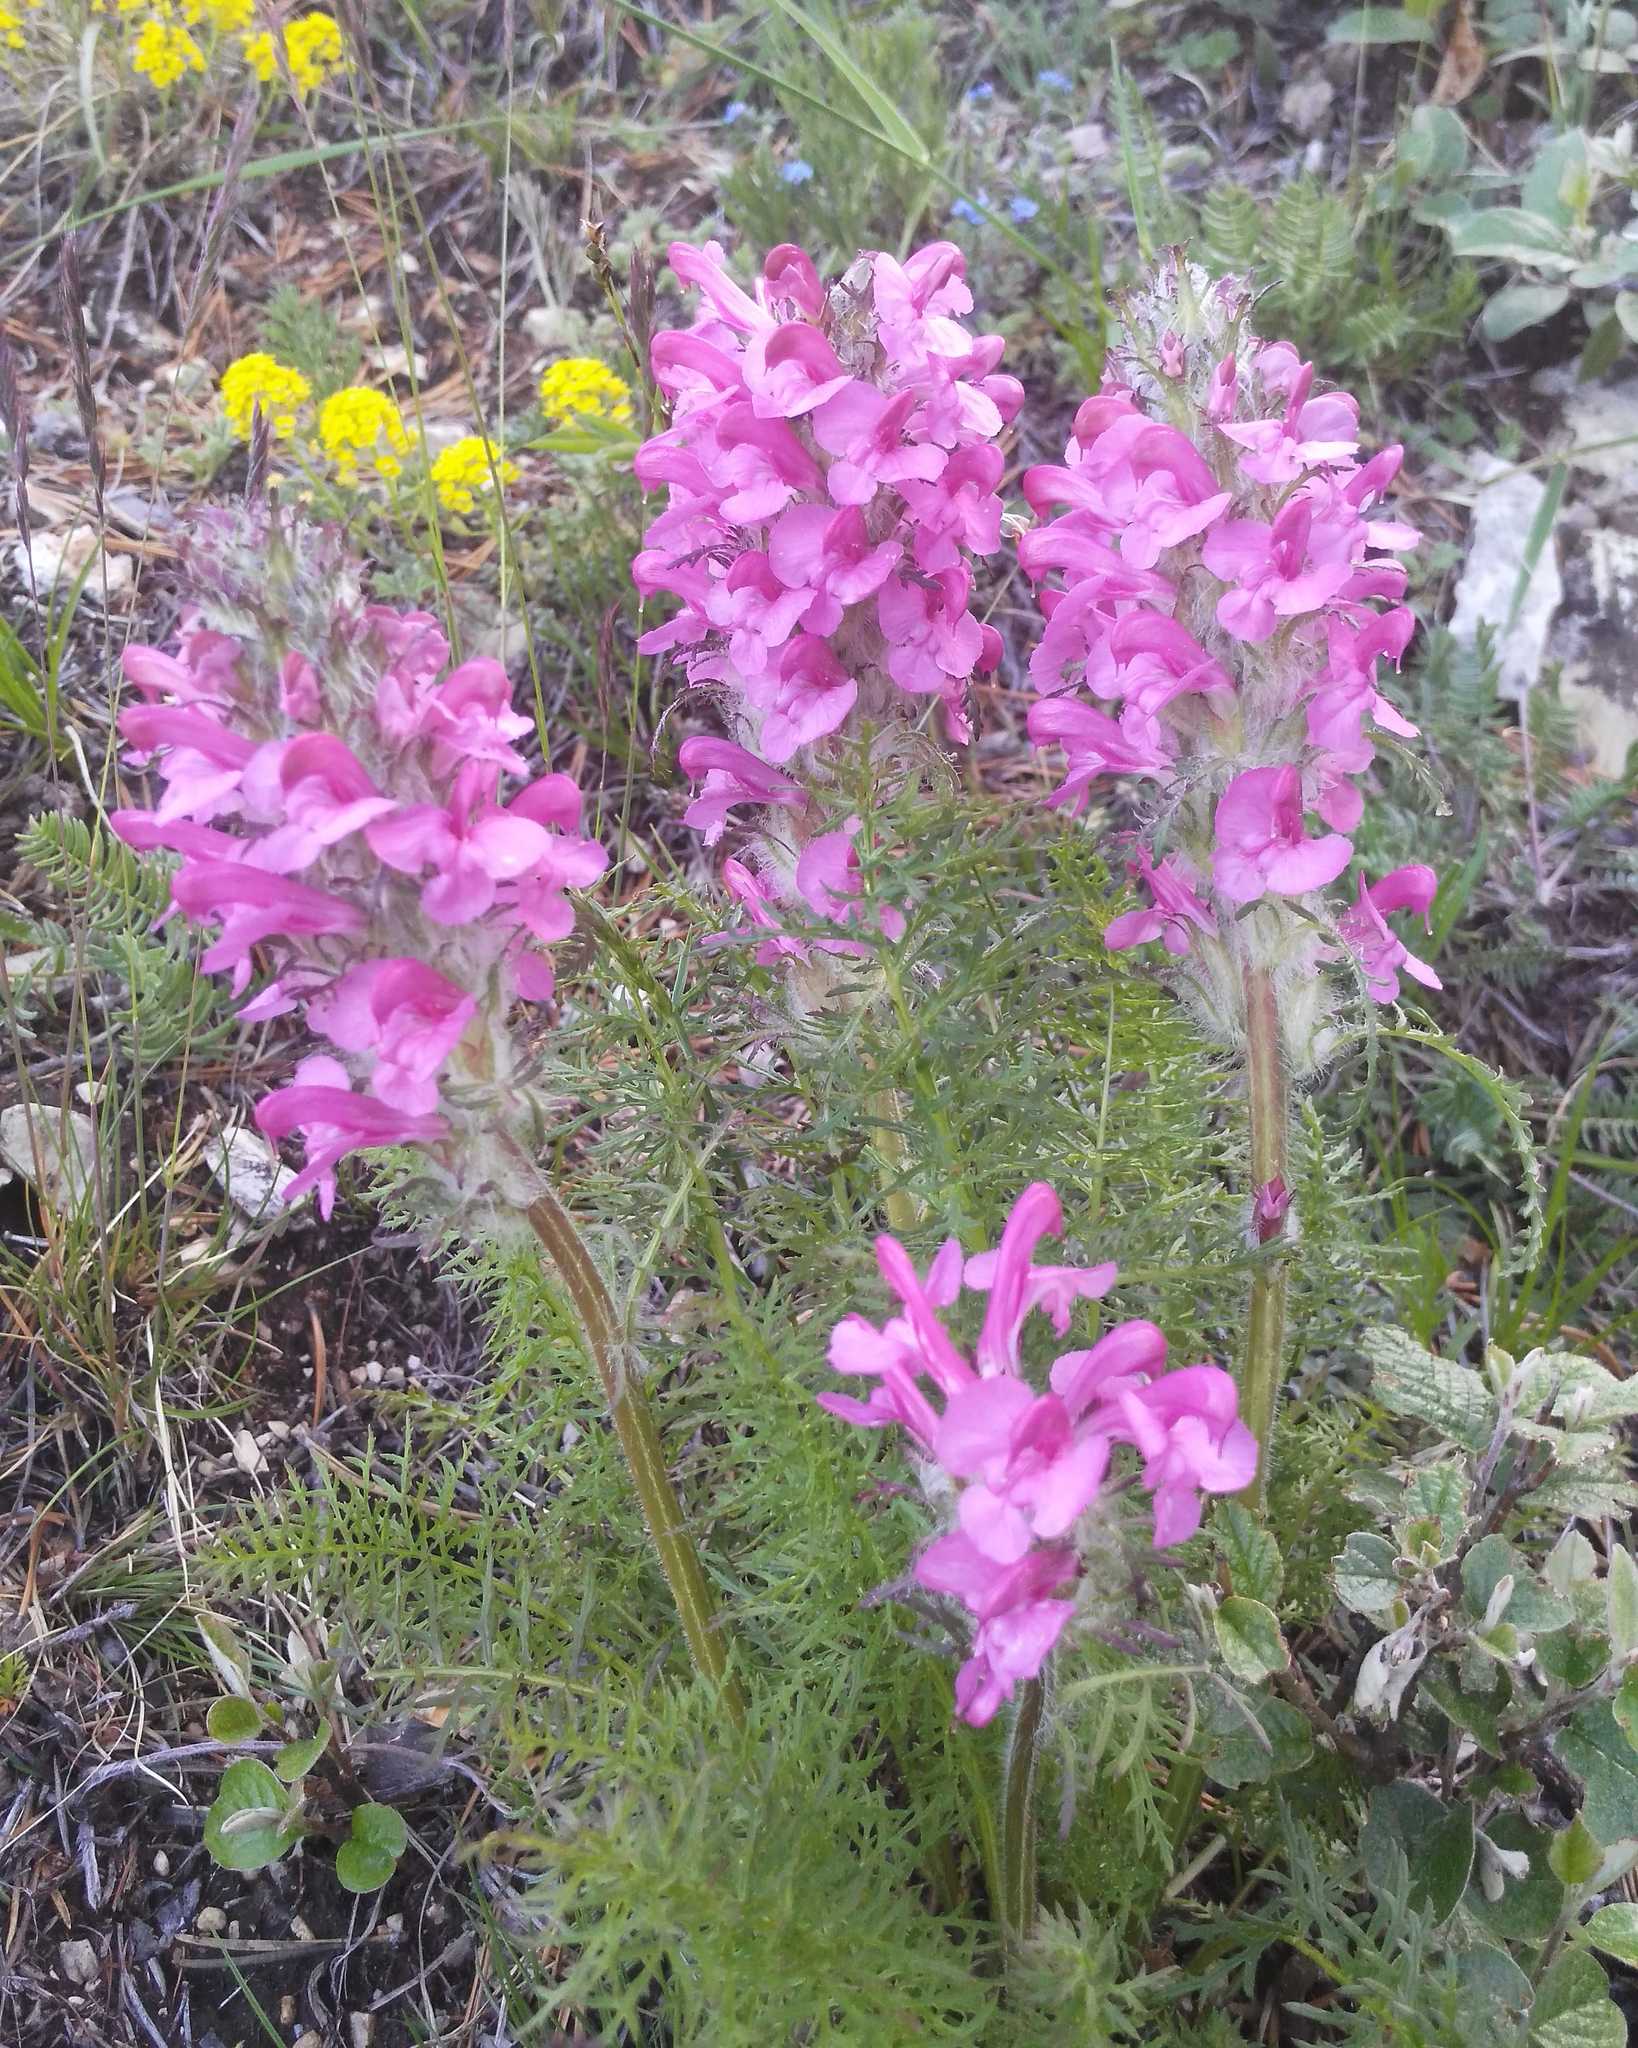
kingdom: Plantae
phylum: Tracheophyta
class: Magnoliopsida
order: Lamiales
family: Orobanchaceae
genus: Pedicularis
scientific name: Pedicularis rubens
